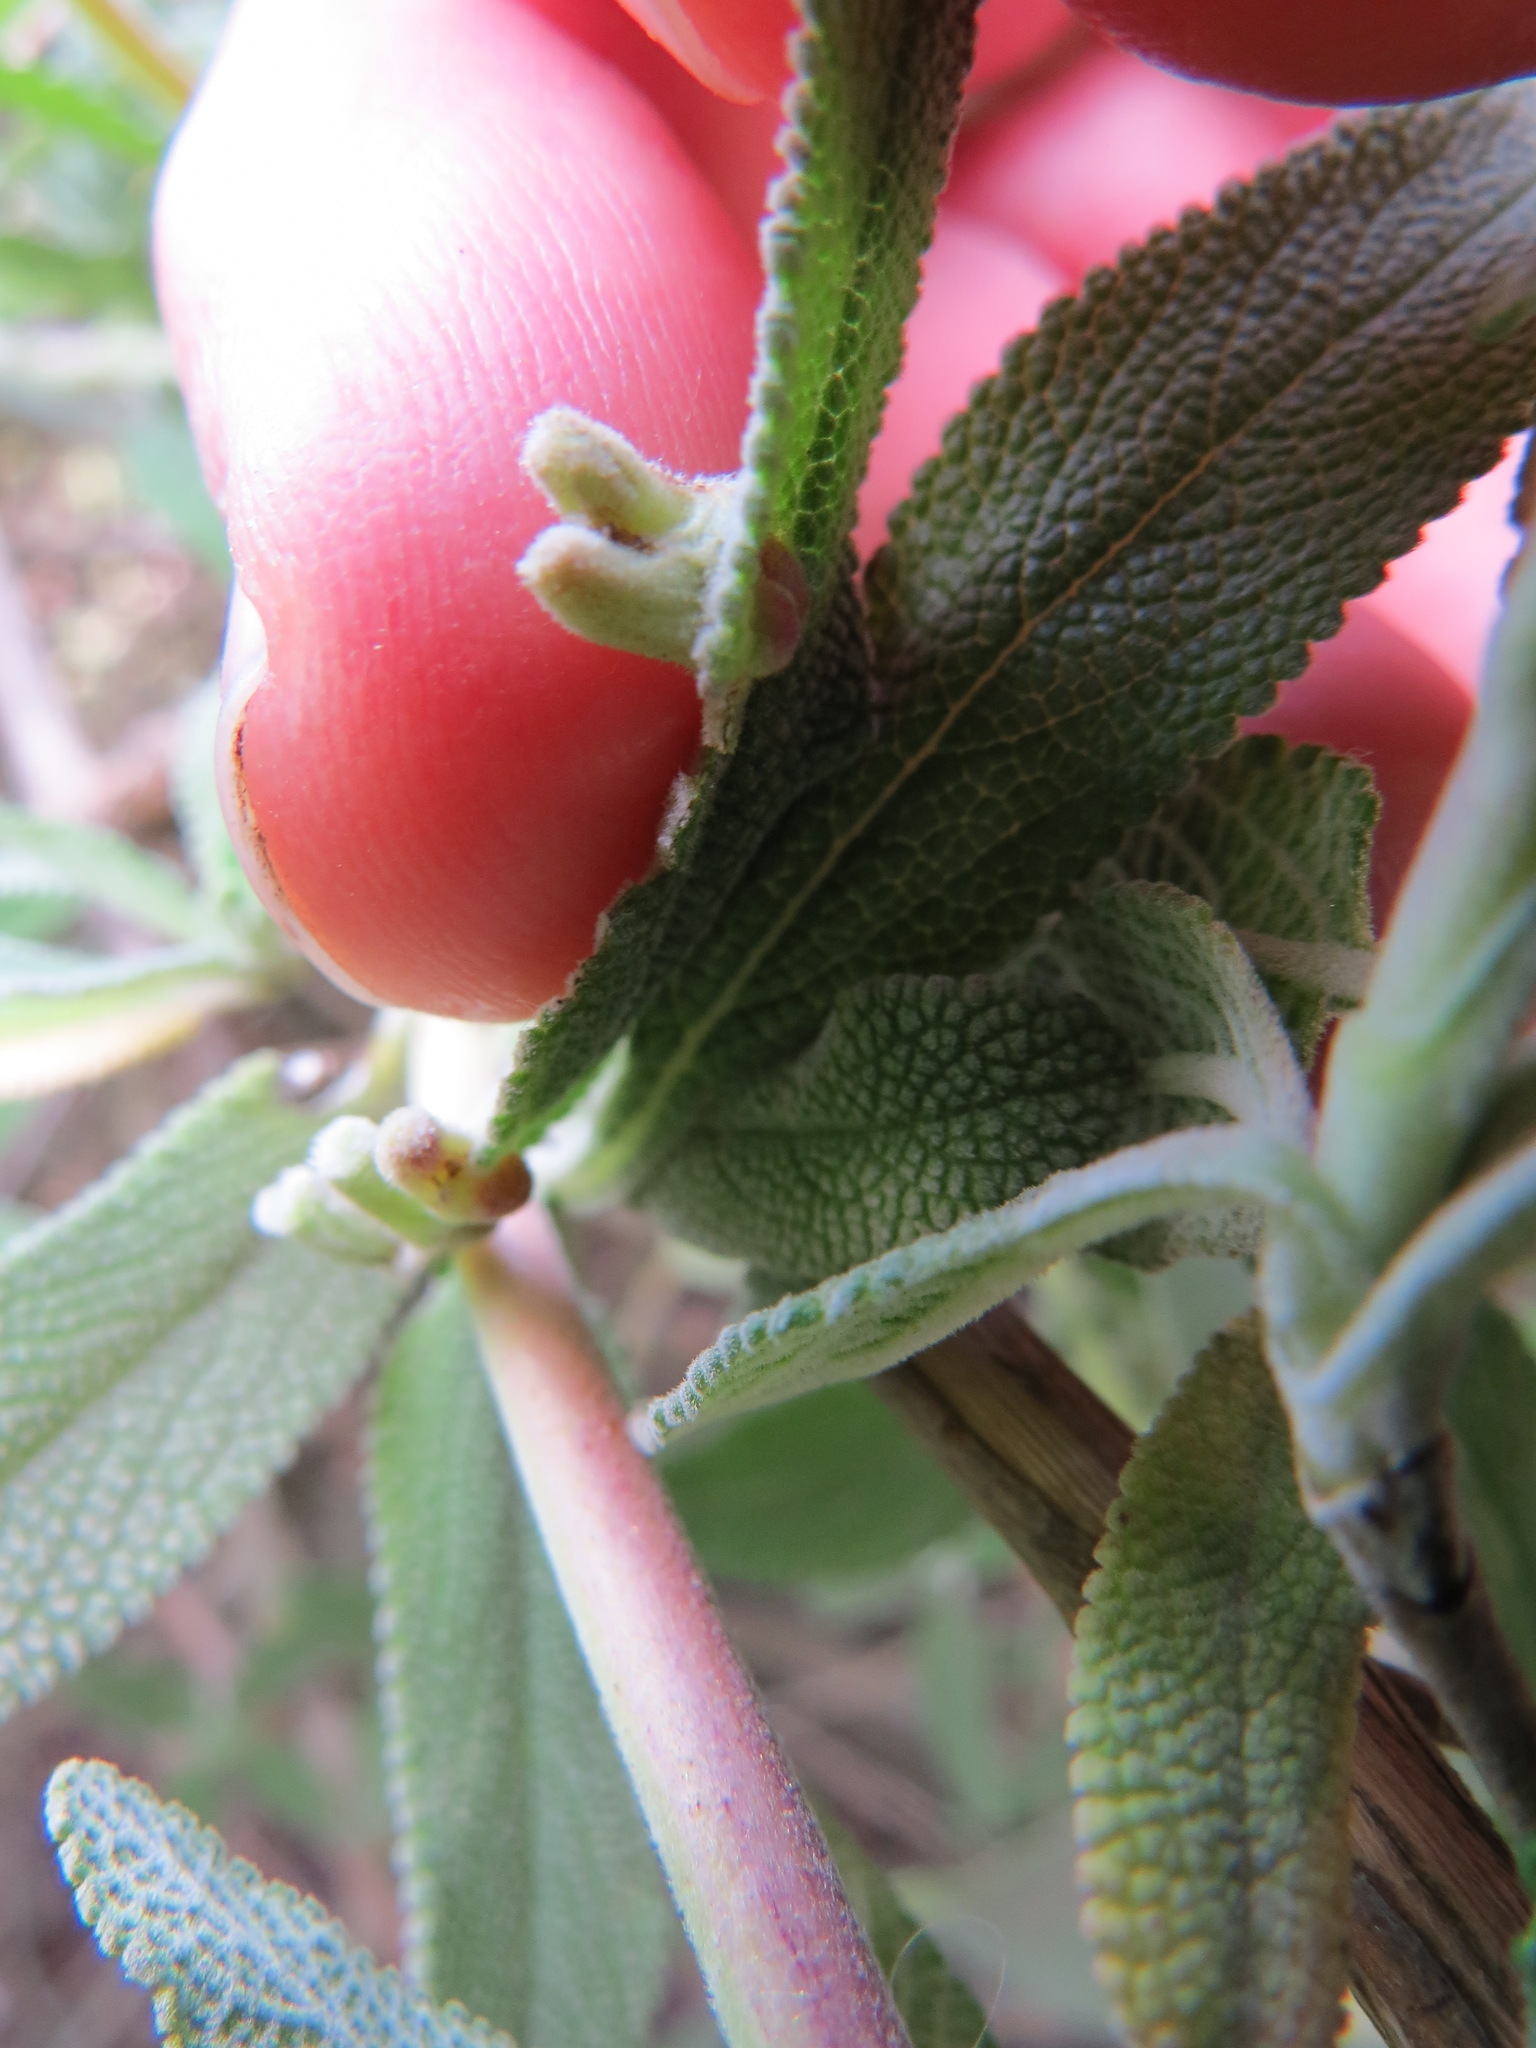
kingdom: Animalia
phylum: Arthropoda
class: Insecta
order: Diptera
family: Cecidomyiidae
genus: Rhopalomyia
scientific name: Rhopalomyia salviae
